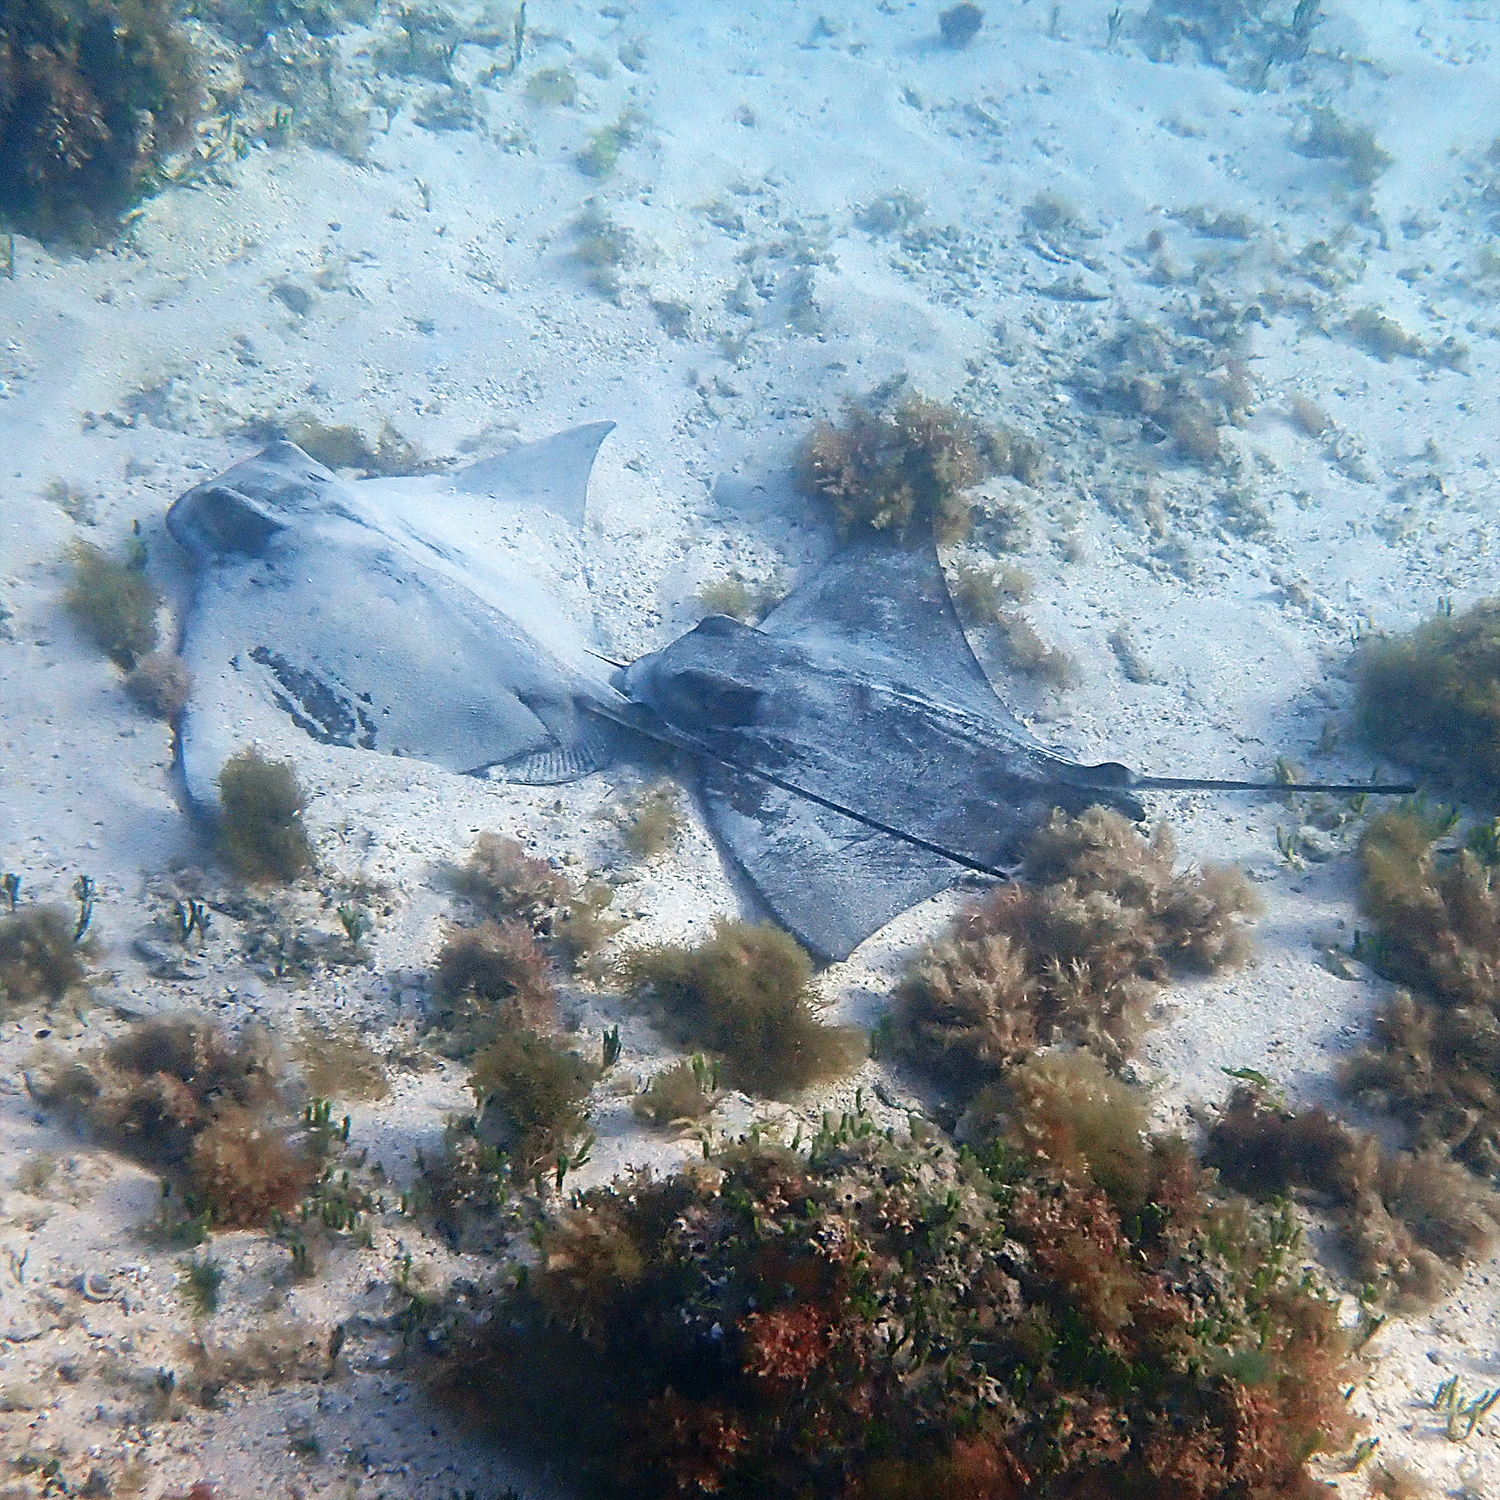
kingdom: Animalia
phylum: Chordata
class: Elasmobranchii
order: Myliobatiformes
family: Myliobatidae
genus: Myliobatis
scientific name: Myliobatis tenuicaudatus
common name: Eagle ray
